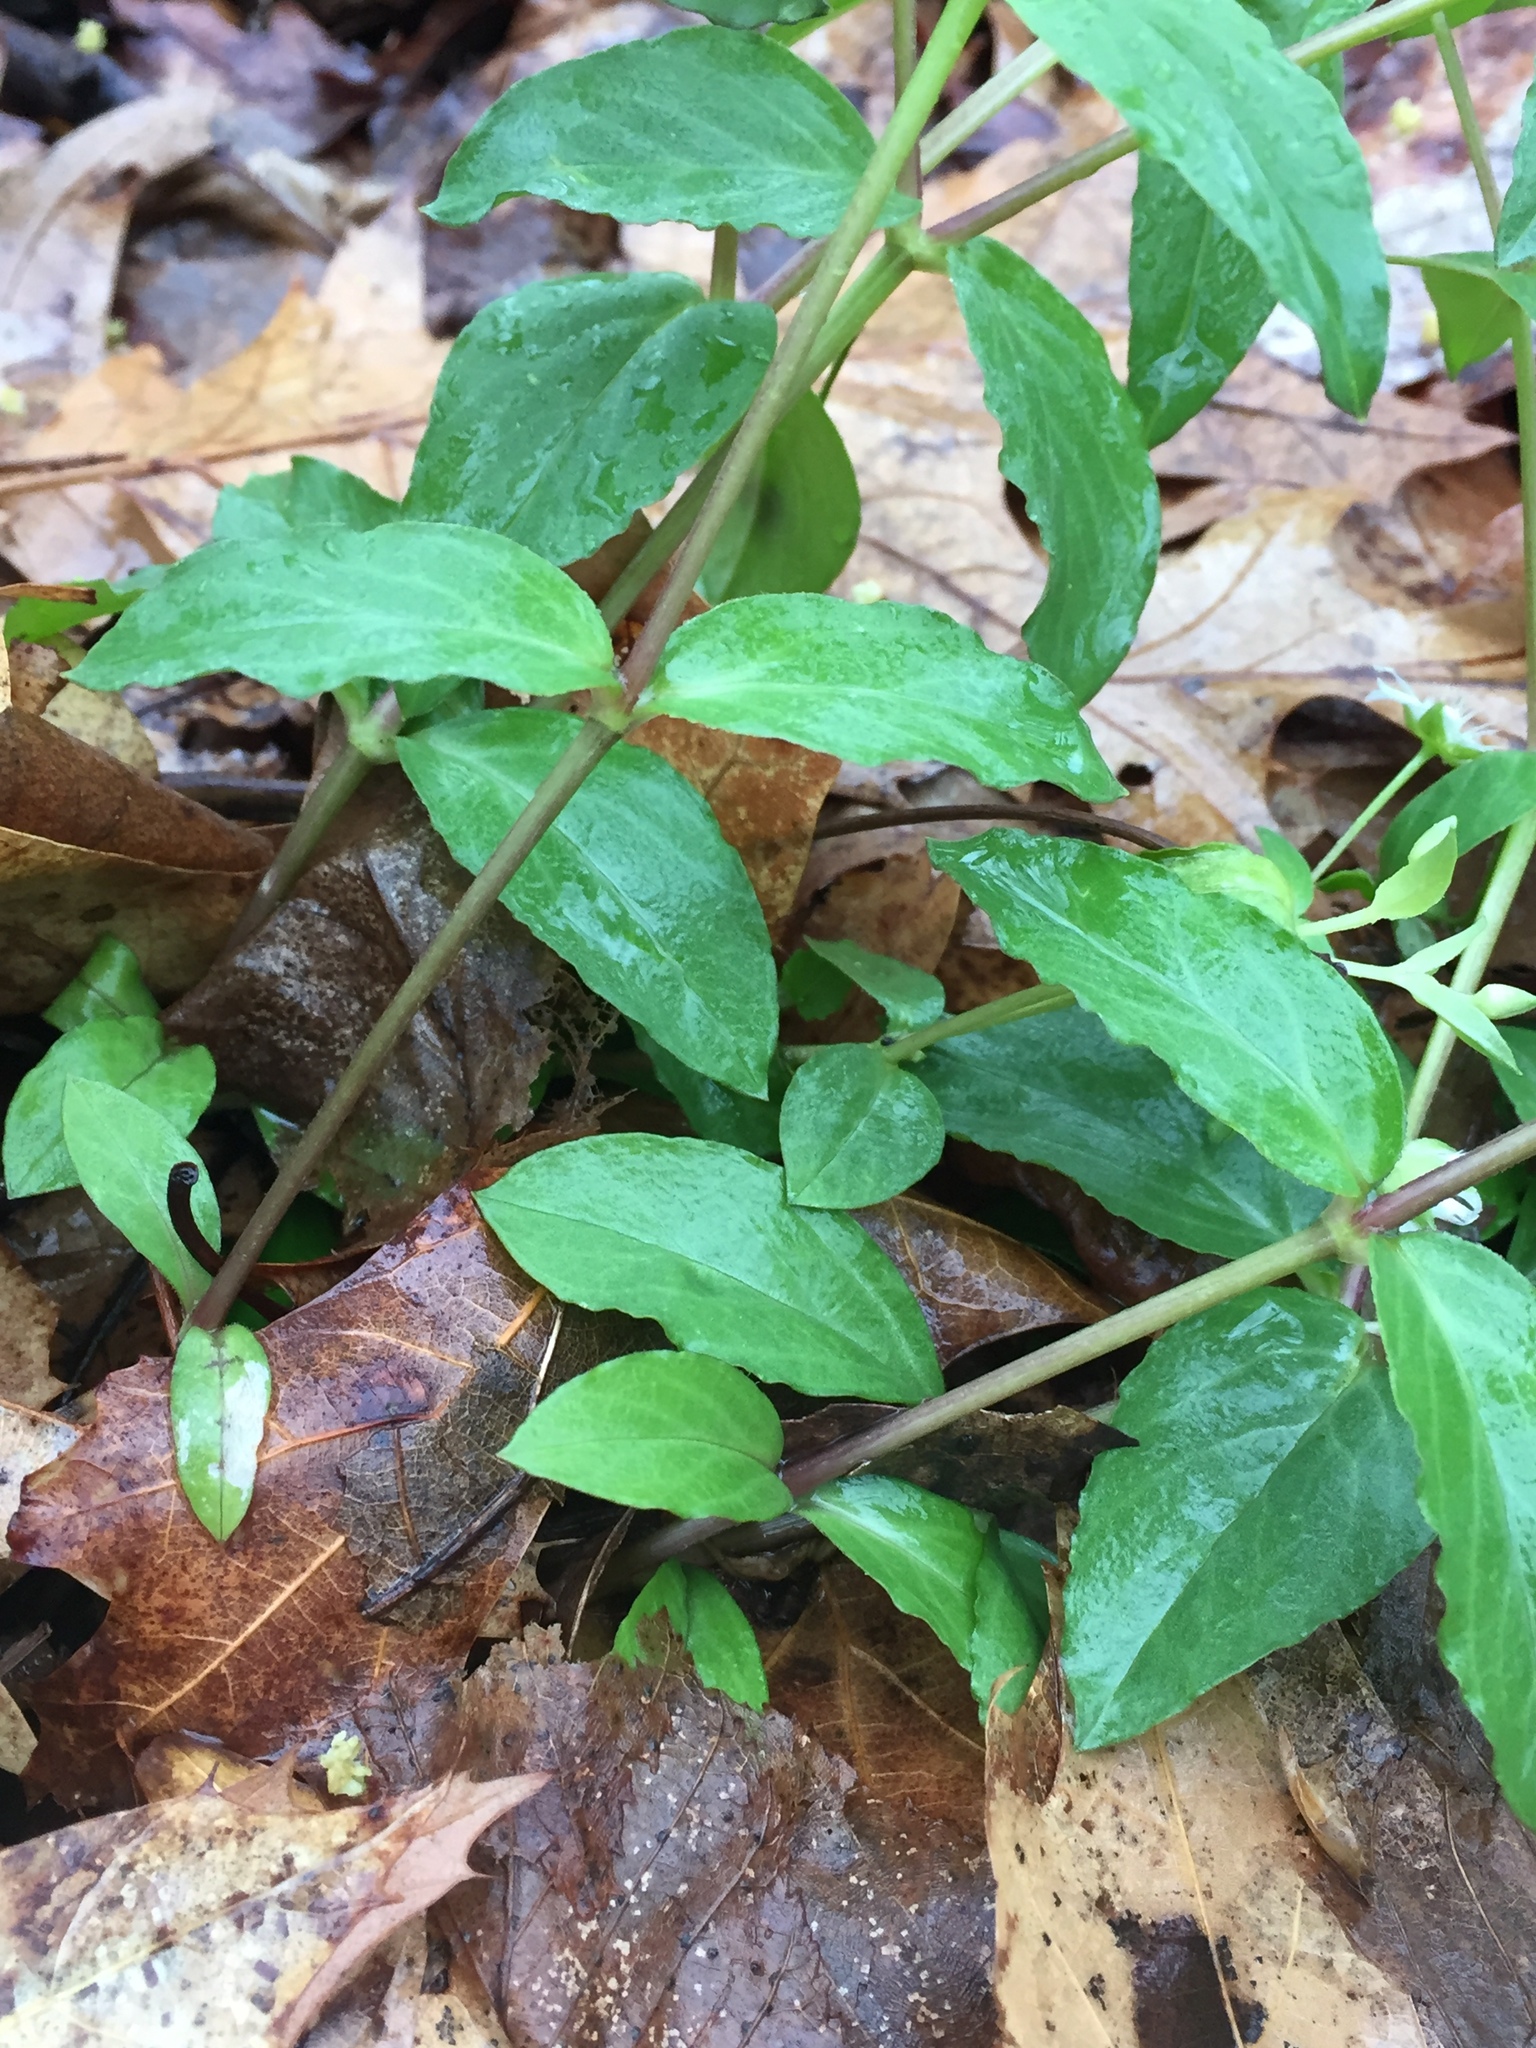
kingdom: Plantae
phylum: Tracheophyta
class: Magnoliopsida
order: Caryophyllales
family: Caryophyllaceae
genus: Stellaria
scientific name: Stellaria pubera
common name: Star chickweed
